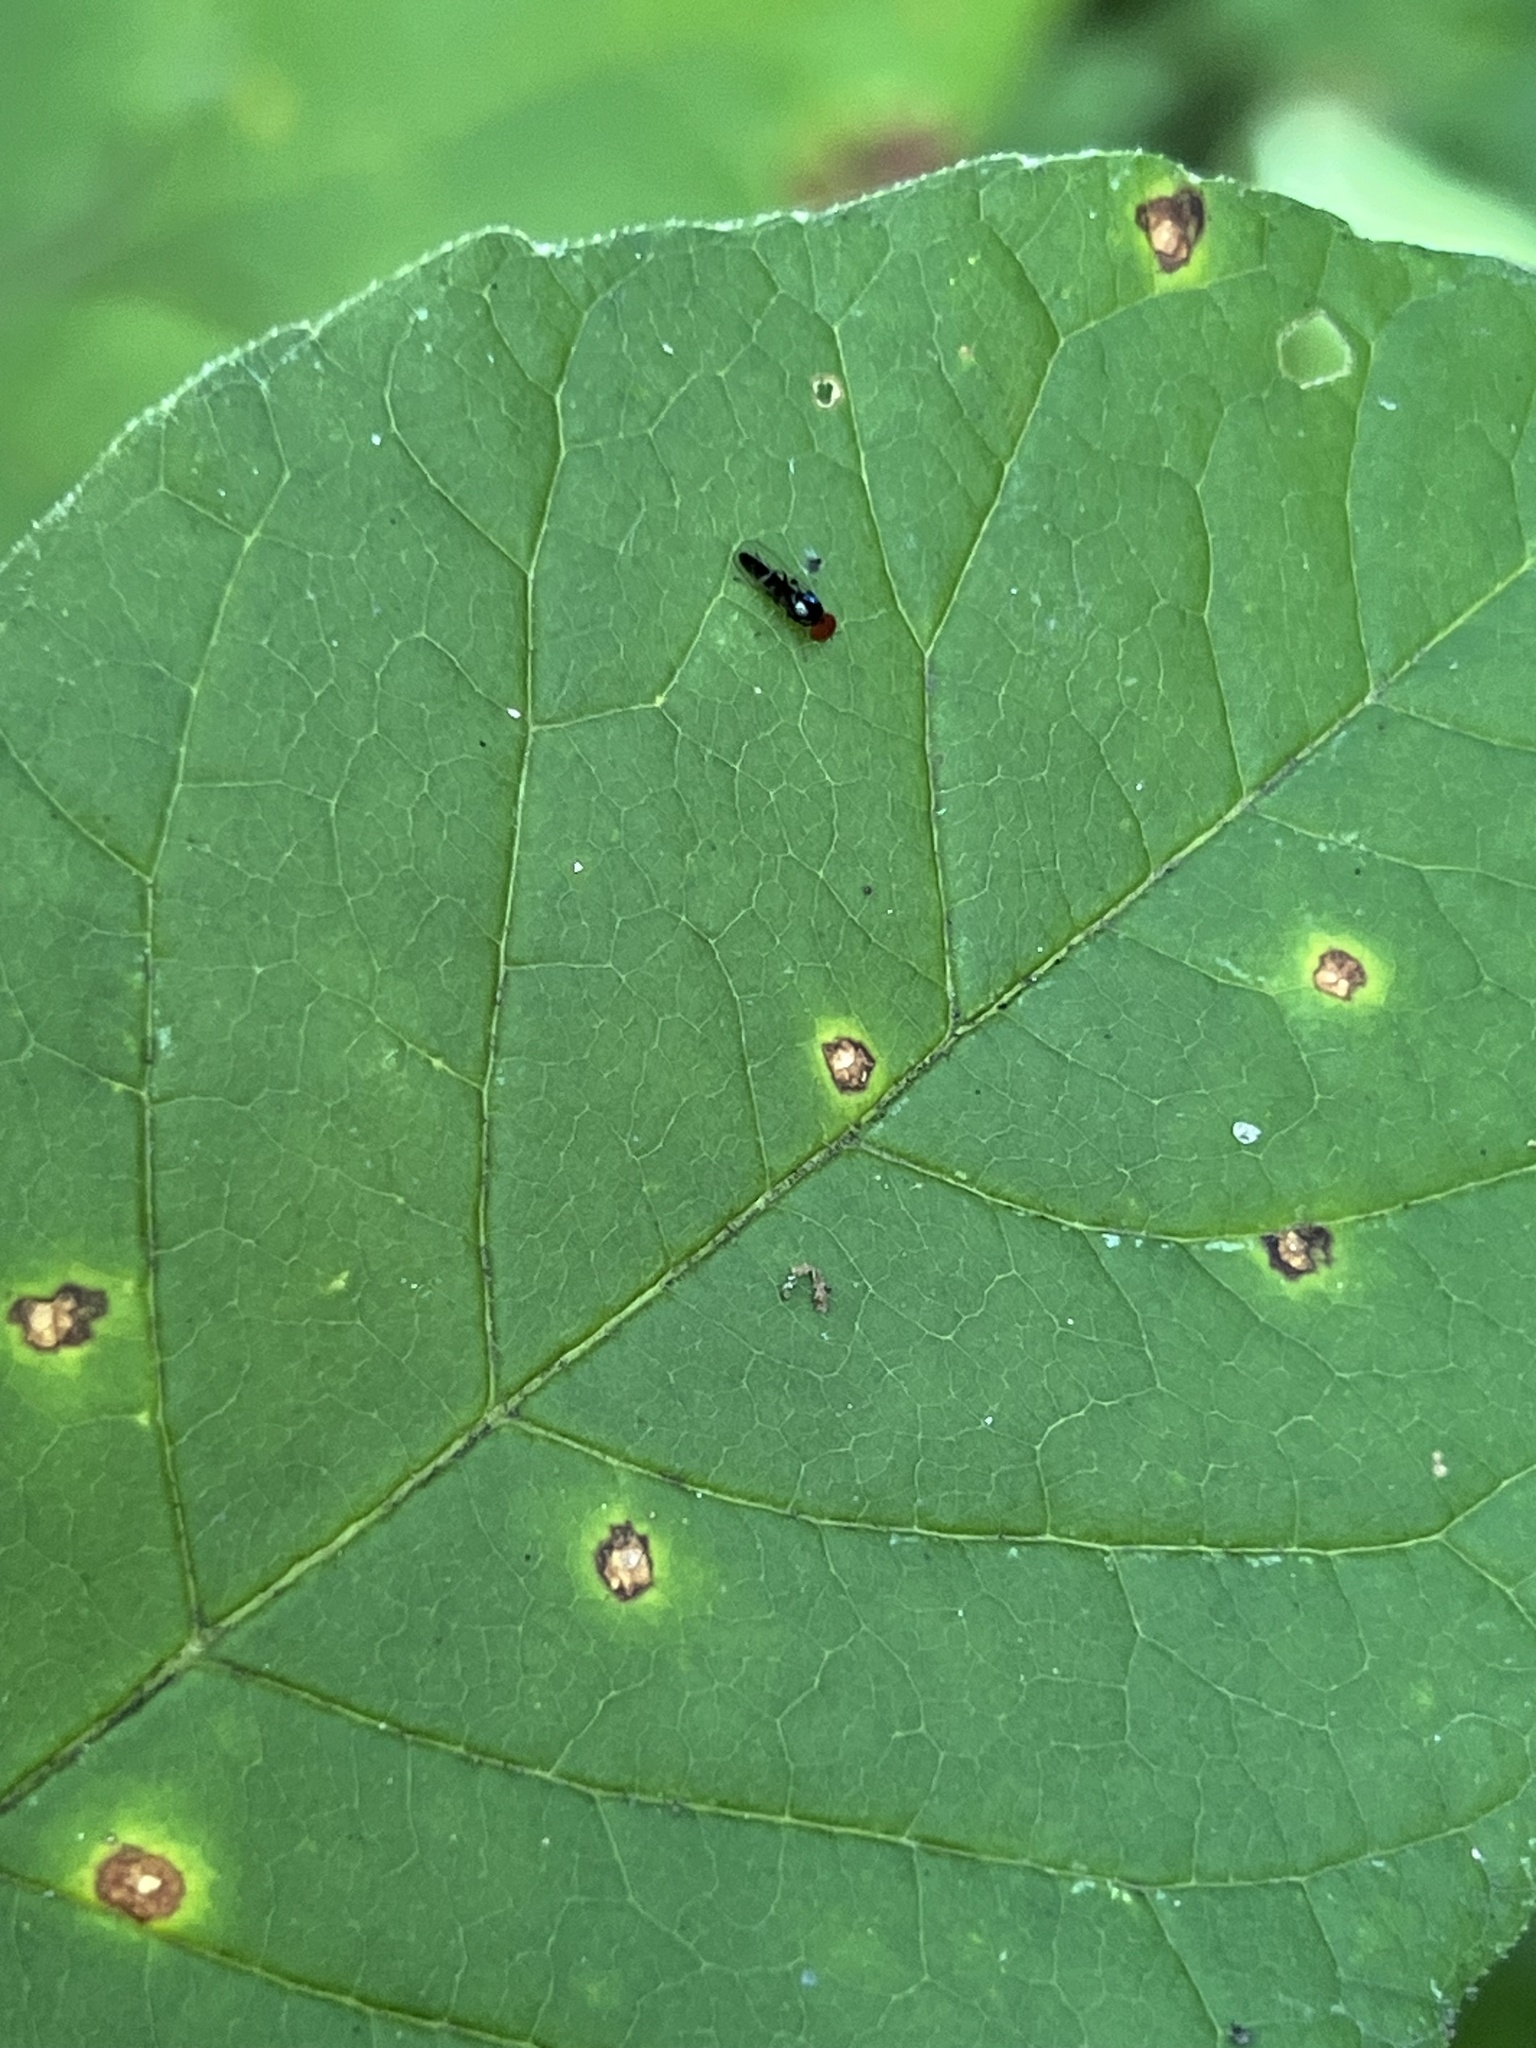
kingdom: Animalia
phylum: Arthropoda
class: Insecta
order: Diptera
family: Platypezidae
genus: Bertamyia
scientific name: Bertamyia notata
